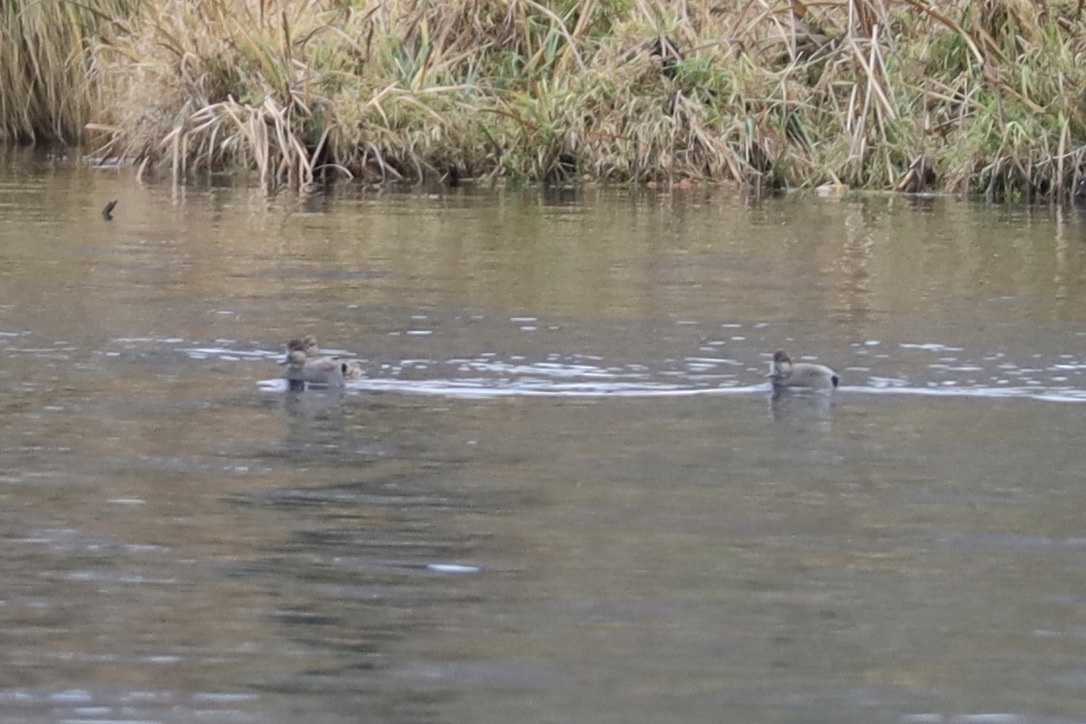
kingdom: Animalia
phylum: Chordata
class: Aves
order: Anseriformes
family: Anatidae
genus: Mareca
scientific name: Mareca strepera
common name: Gadwall
